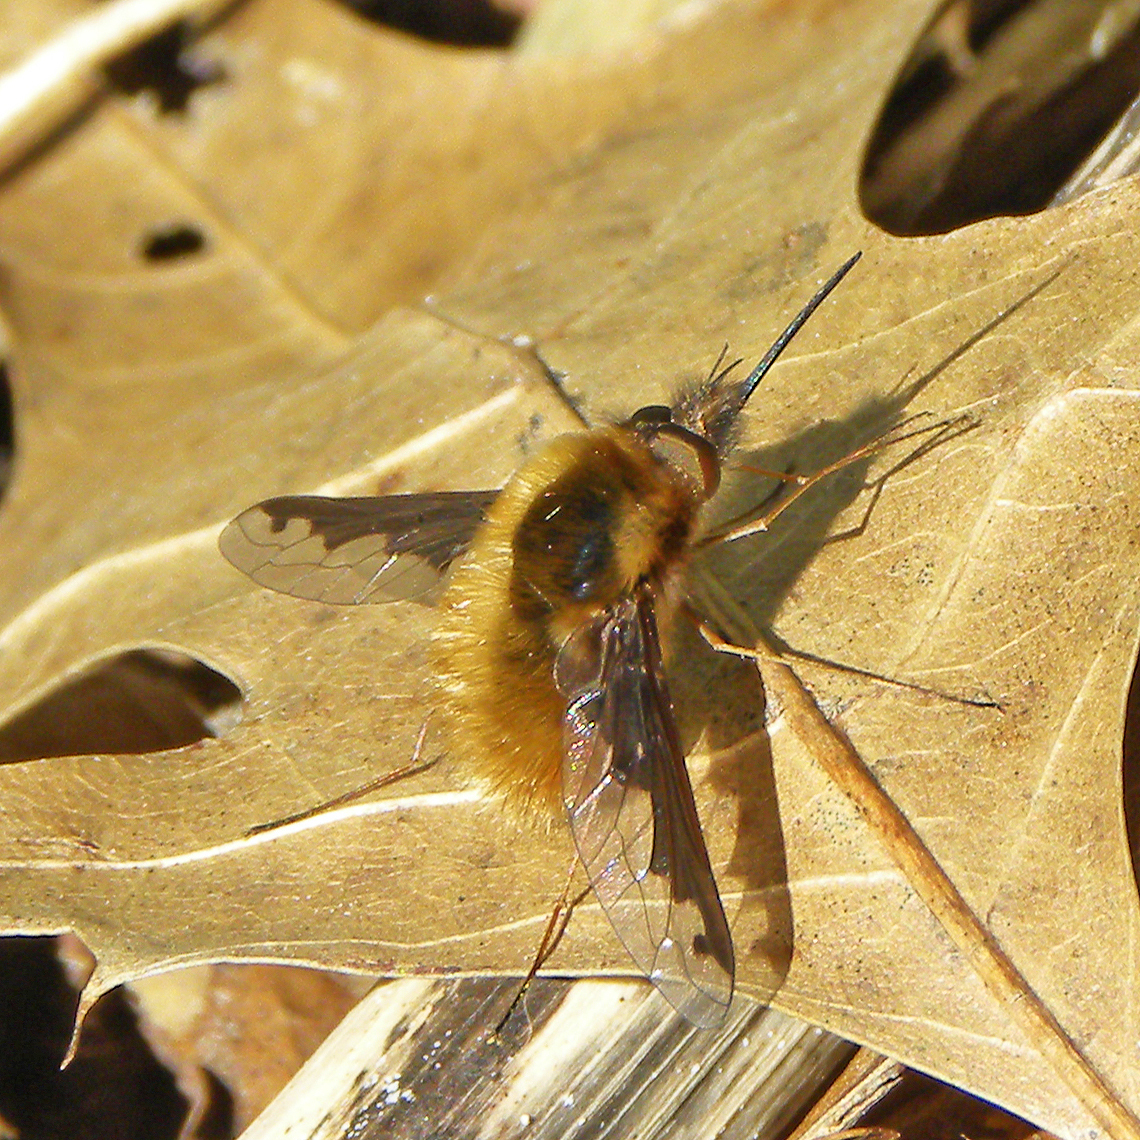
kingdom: Animalia
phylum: Arthropoda
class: Insecta
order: Diptera
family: Bombyliidae
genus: Bombylius
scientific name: Bombylius major
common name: Bee fly
